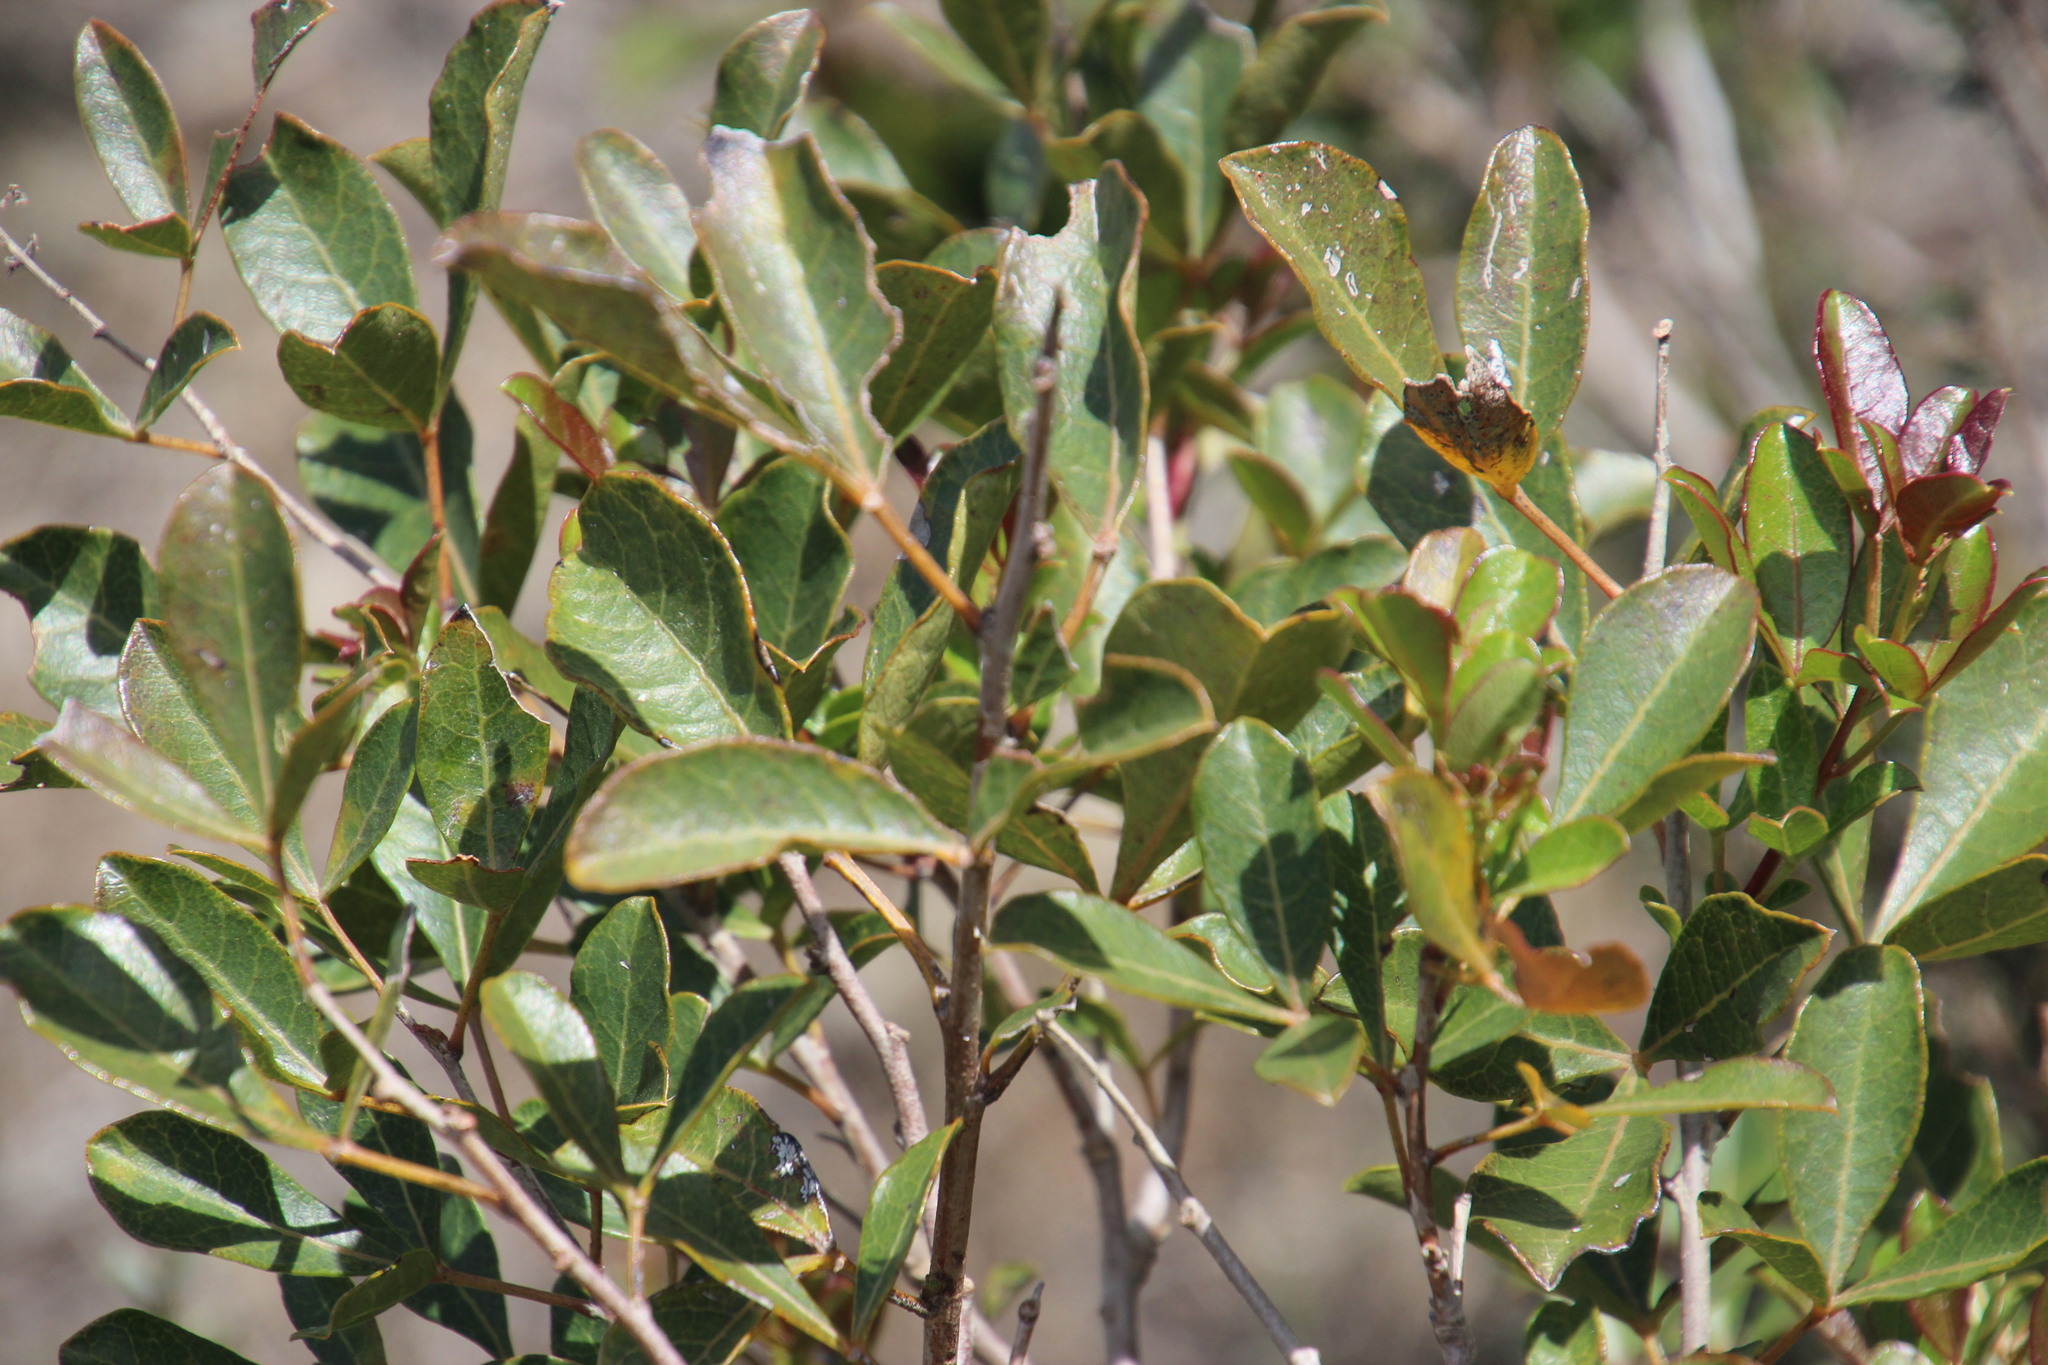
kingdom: Plantae
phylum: Tracheophyta
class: Magnoliopsida
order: Sapindales
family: Anacardiaceae
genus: Searsia
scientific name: Searsia laevigata
